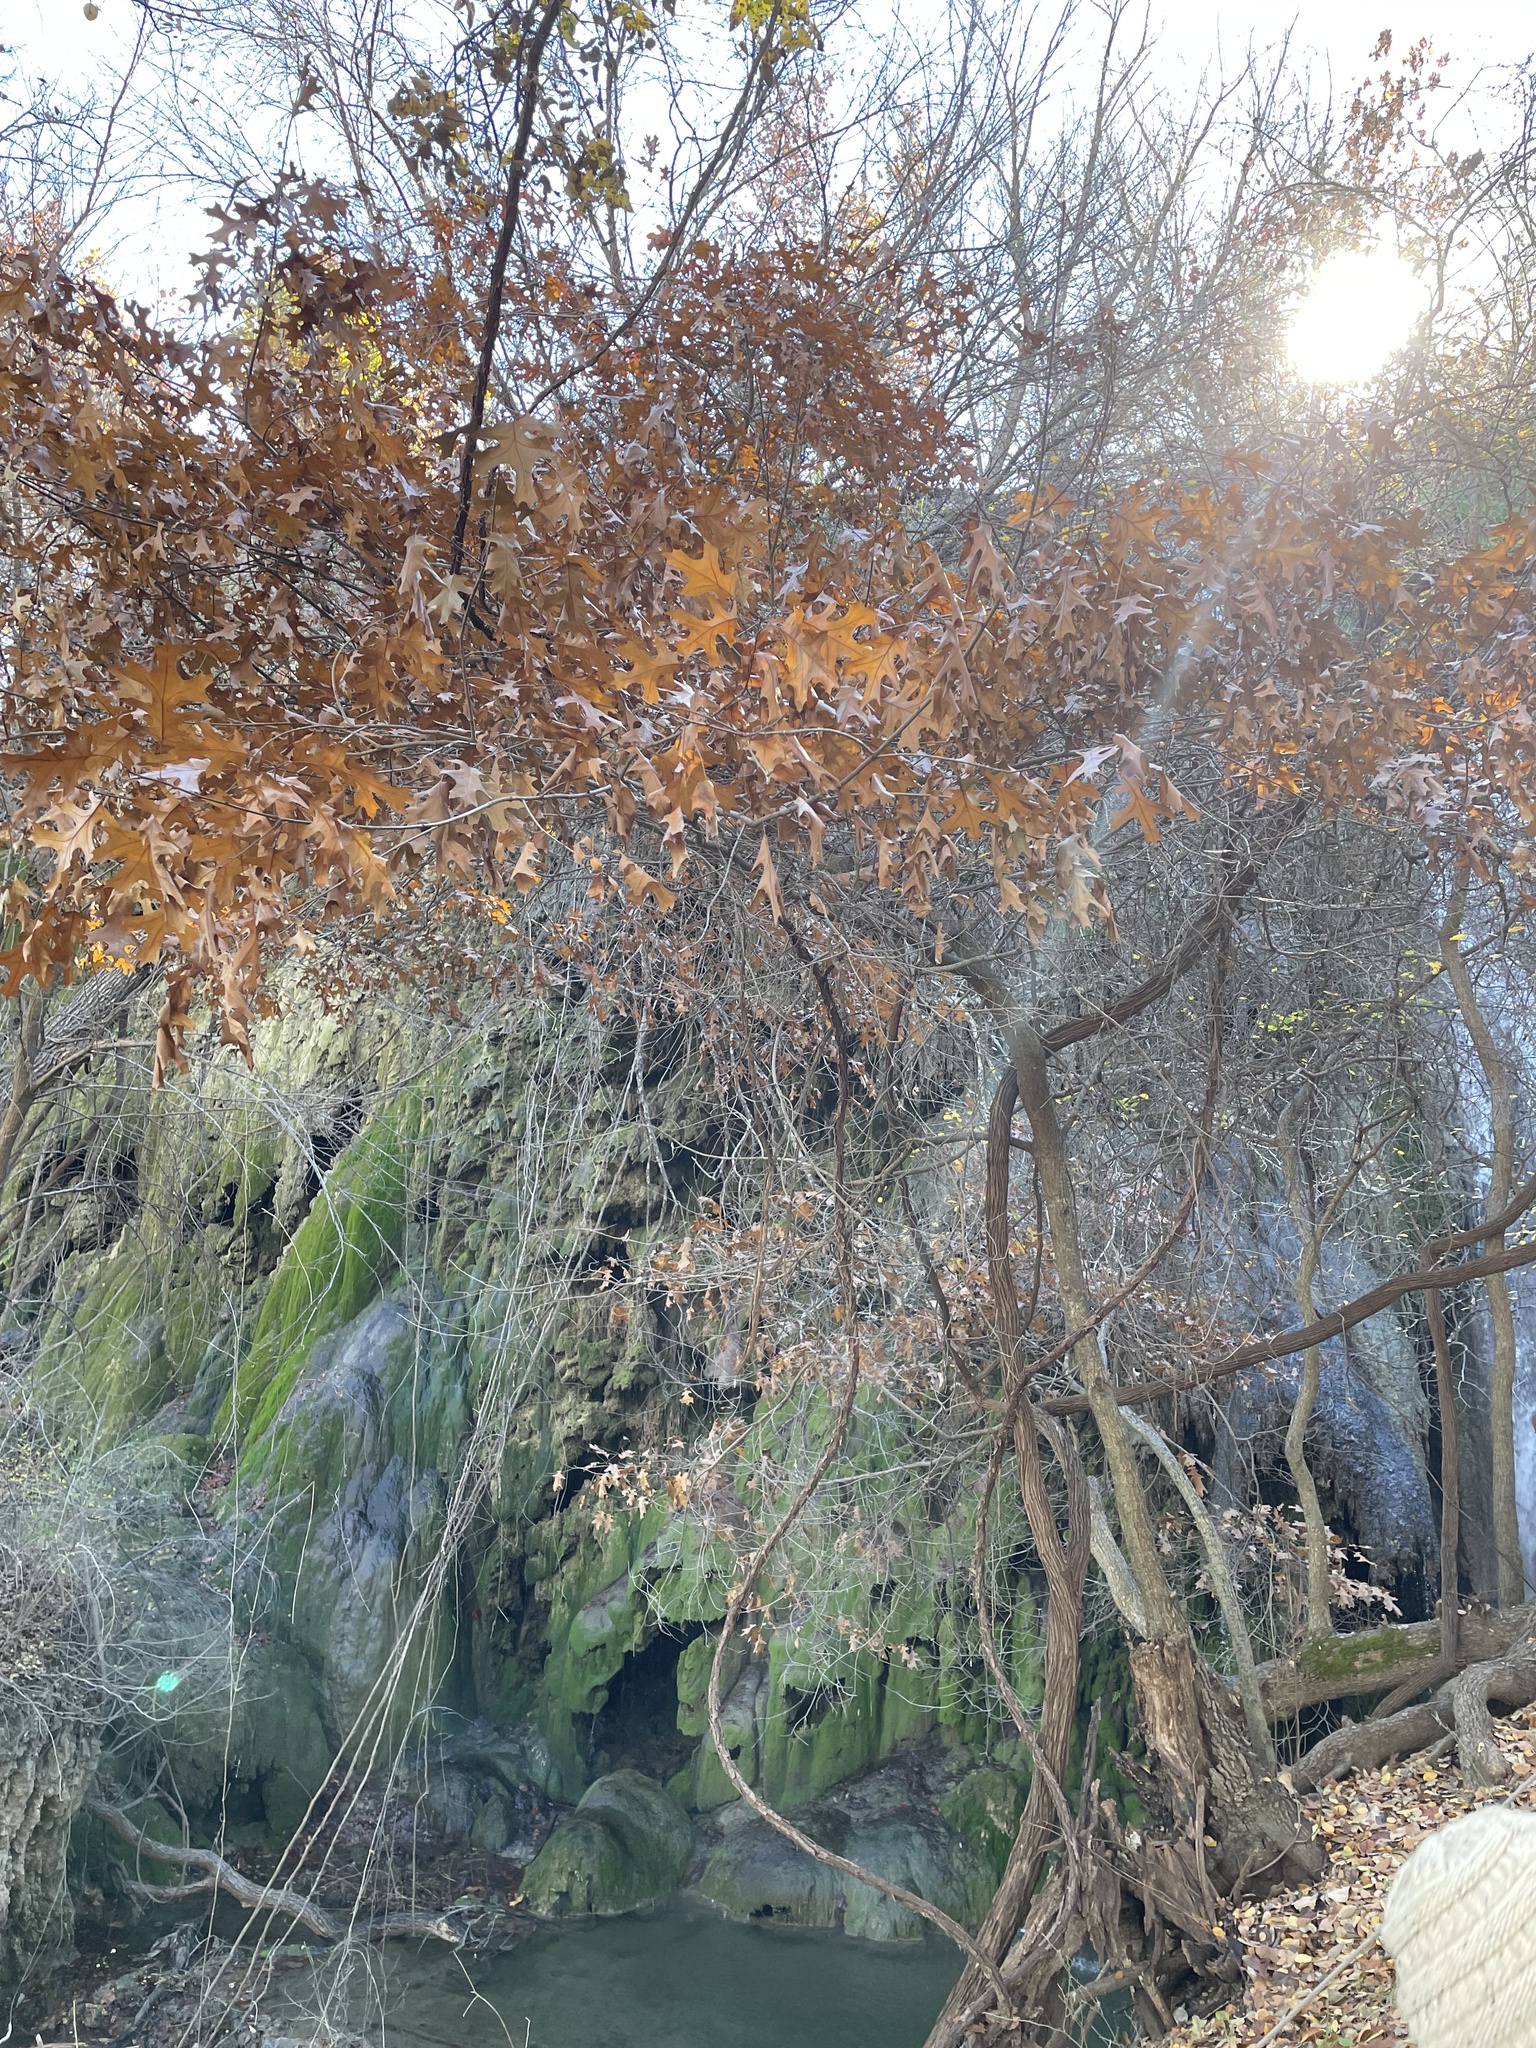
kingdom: Plantae
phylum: Tracheophyta
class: Magnoliopsida
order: Fagales
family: Fagaceae
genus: Quercus
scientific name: Quercus buckleyi
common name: Buckley oak
